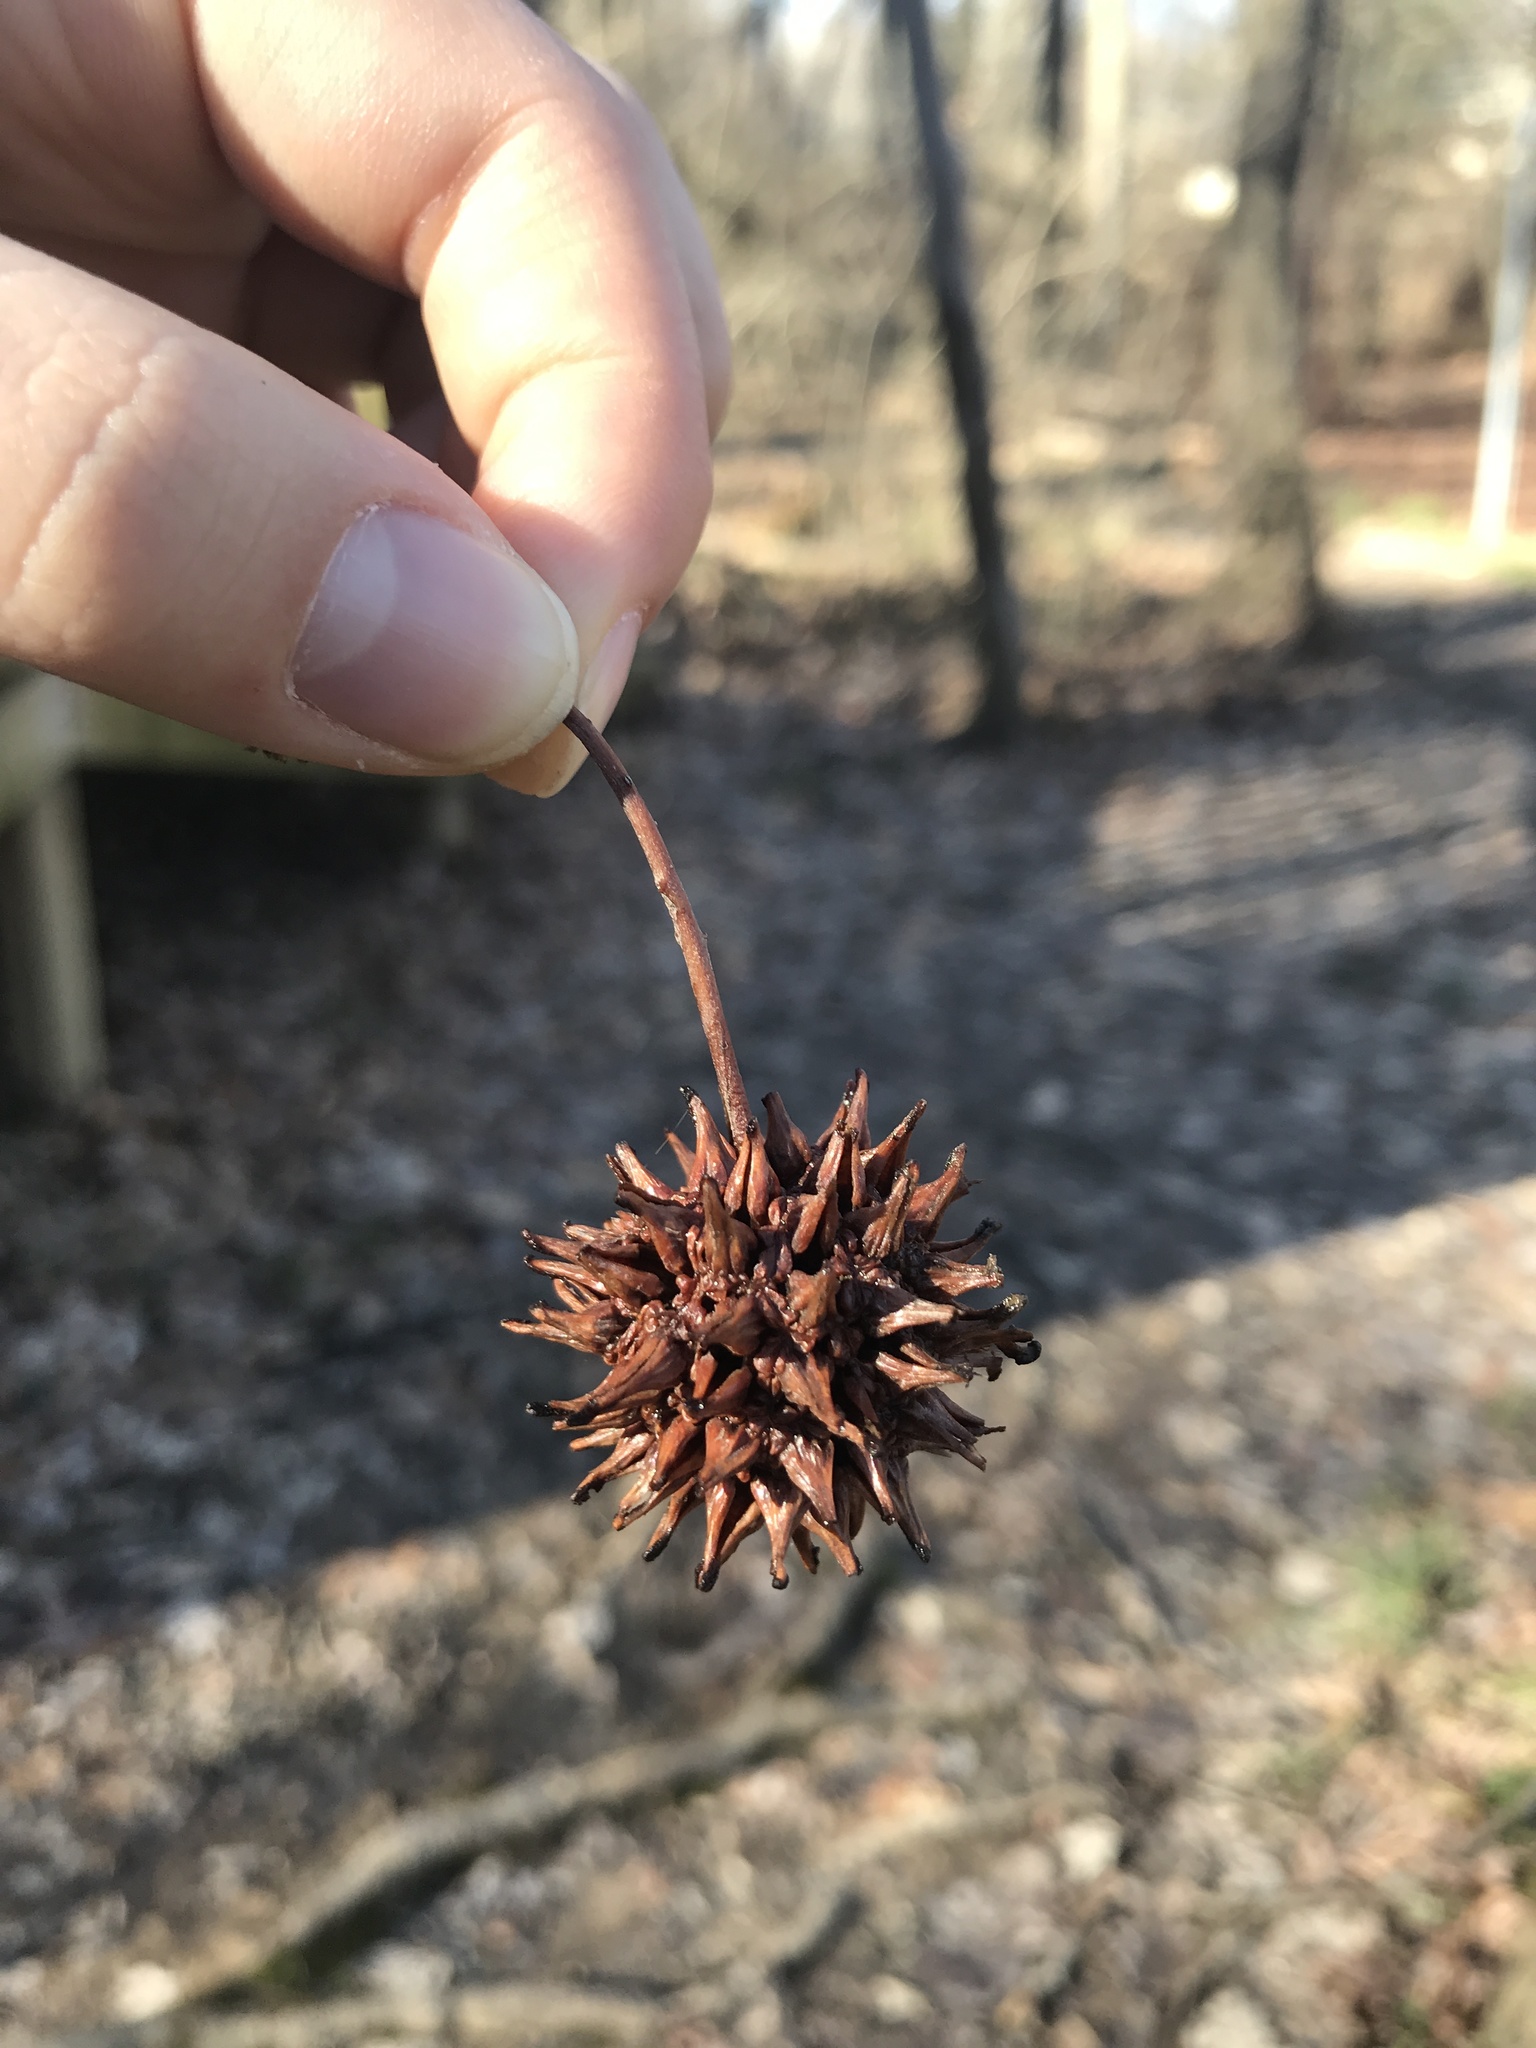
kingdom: Plantae
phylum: Tracheophyta
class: Magnoliopsida
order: Saxifragales
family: Altingiaceae
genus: Liquidambar
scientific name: Liquidambar styraciflua
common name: Sweet gum
